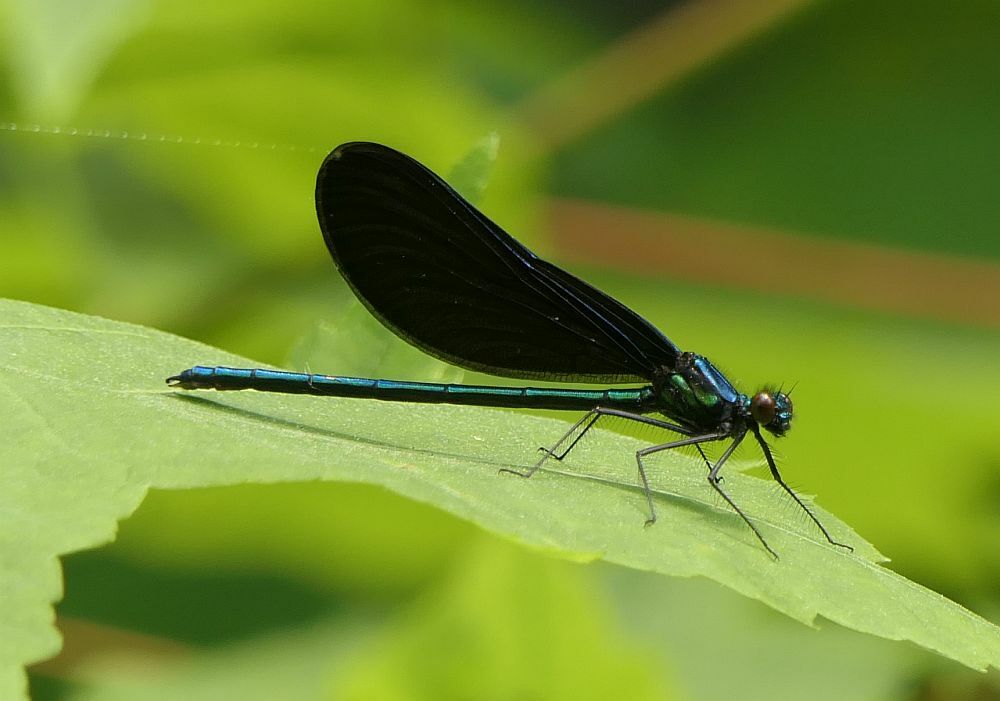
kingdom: Animalia
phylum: Arthropoda
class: Insecta
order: Odonata
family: Calopterygidae
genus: Calopteryx
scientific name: Calopteryx maculata
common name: Ebony jewelwing
